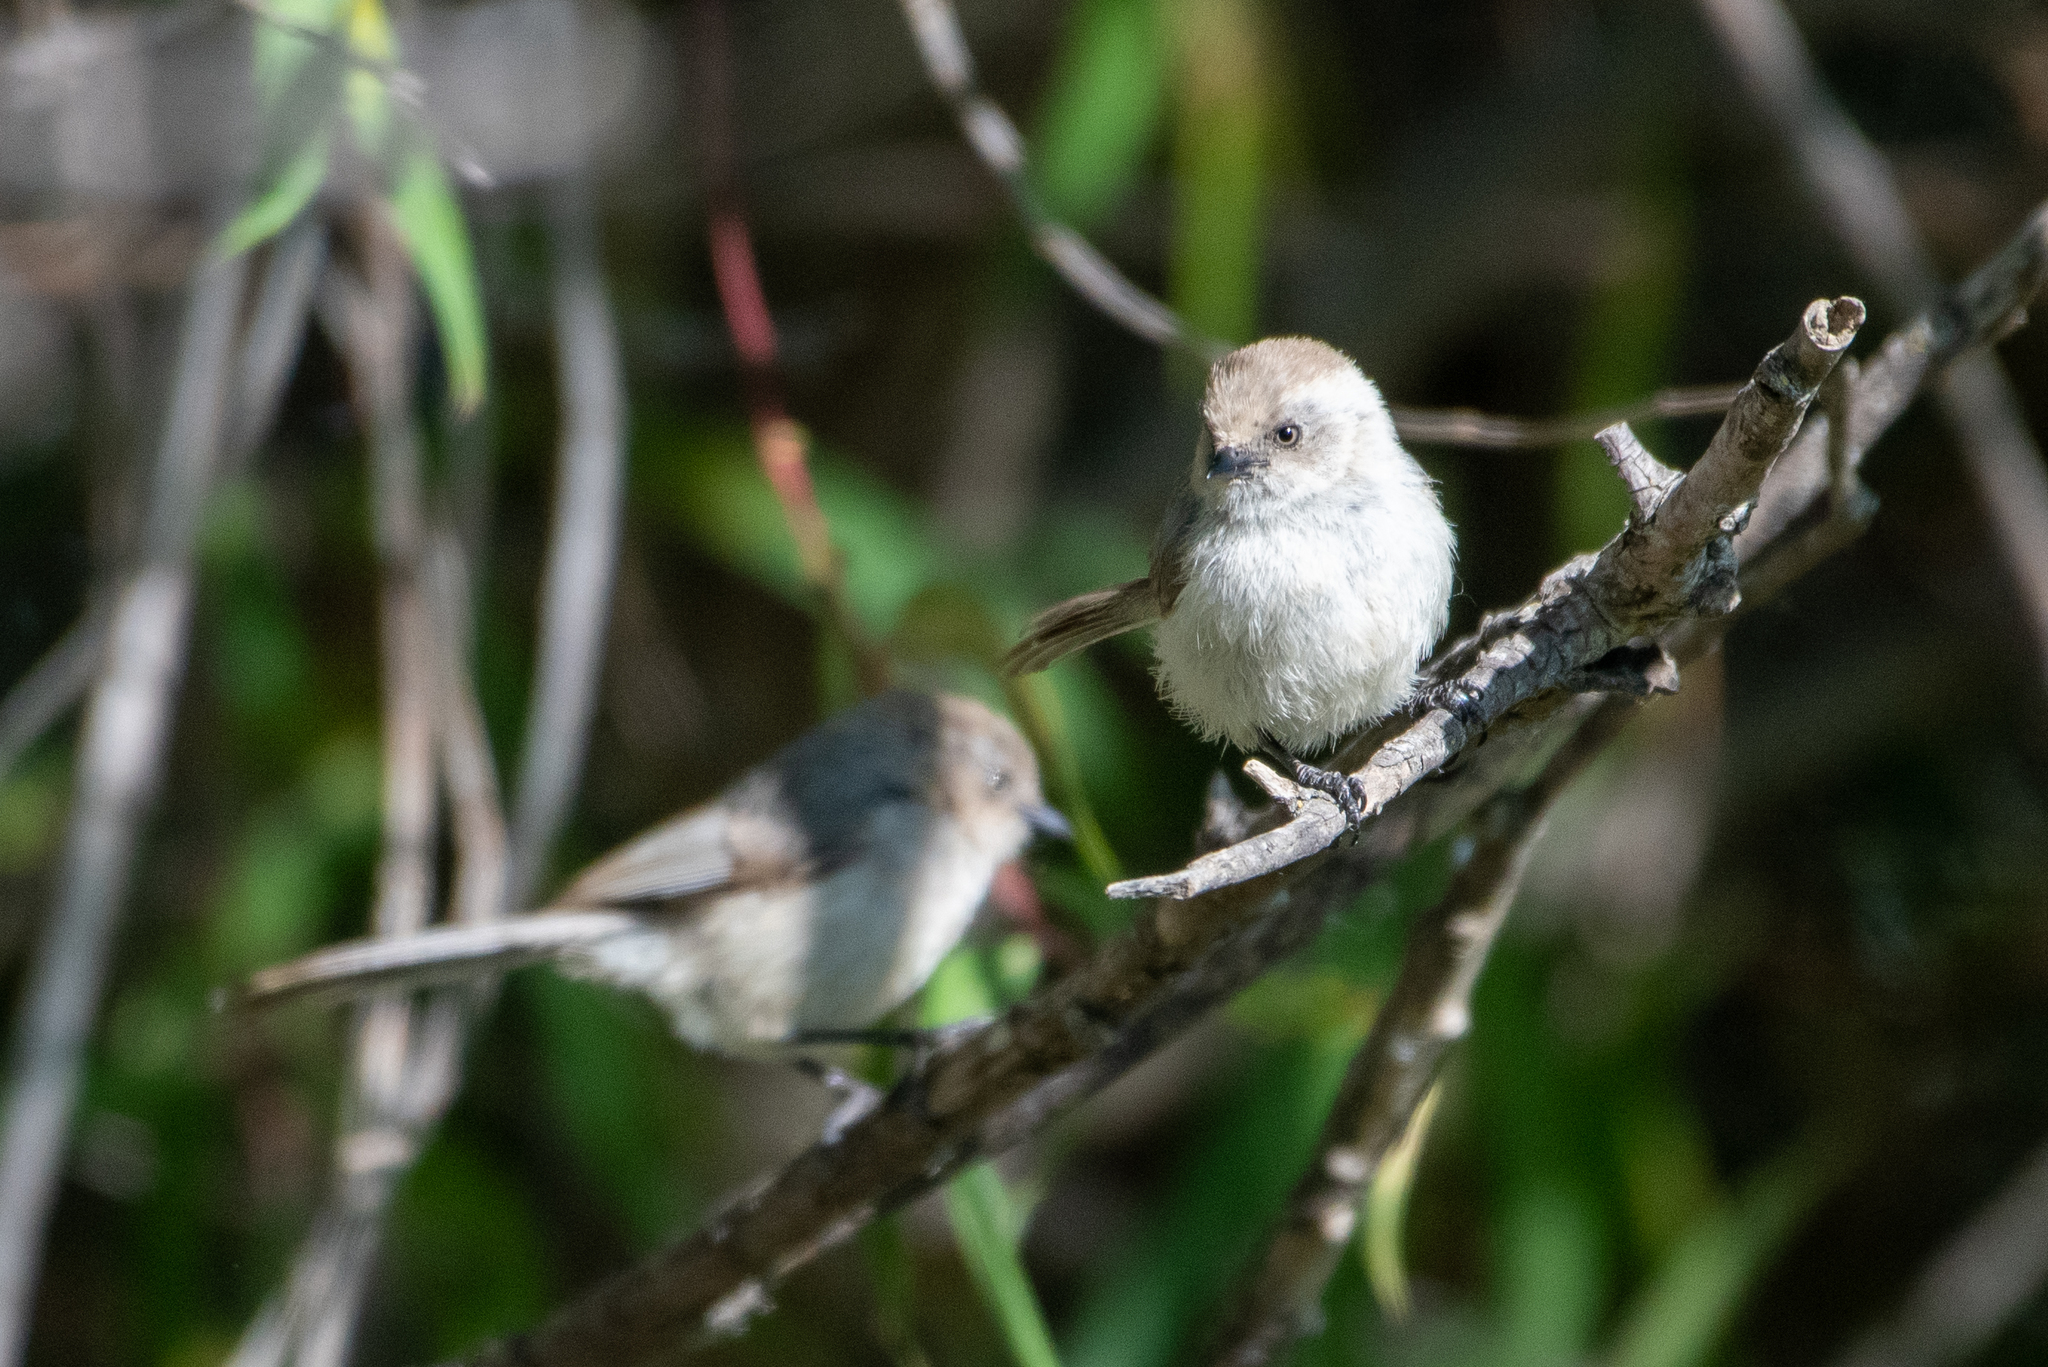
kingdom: Animalia
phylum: Chordata
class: Aves
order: Passeriformes
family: Aegithalidae
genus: Psaltriparus
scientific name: Psaltriparus minimus
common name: American bushtit
